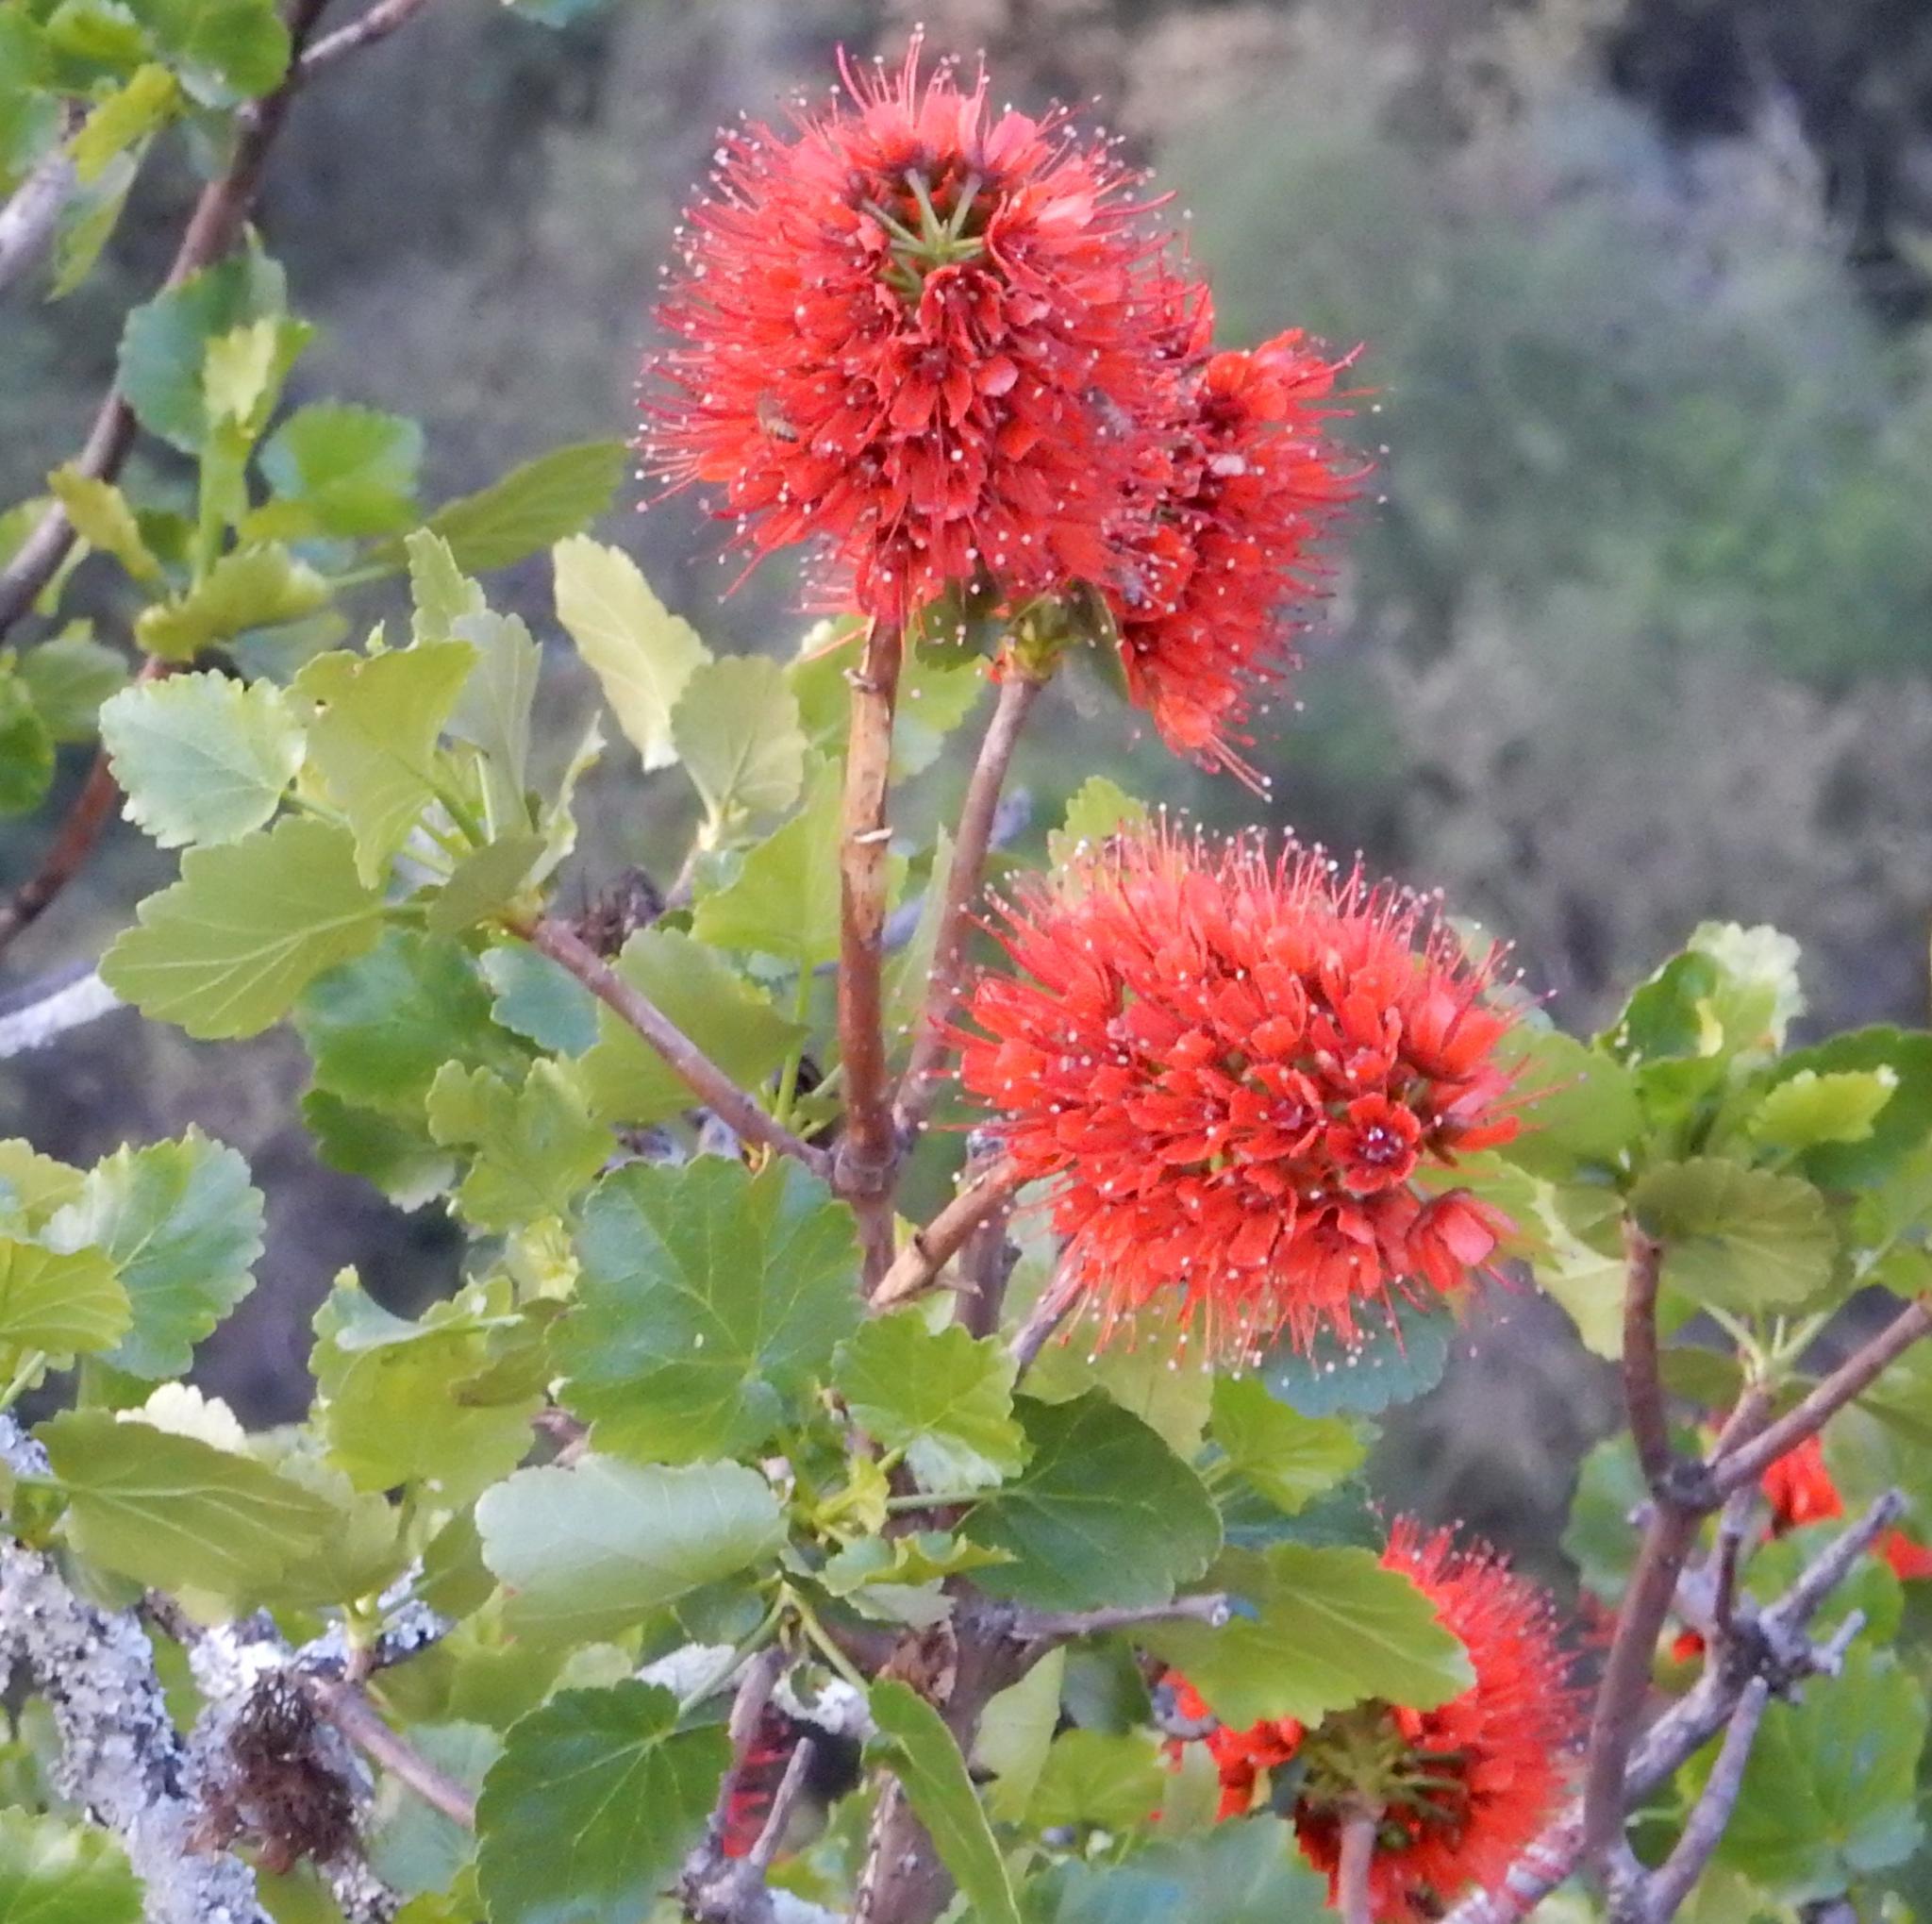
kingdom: Plantae
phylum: Tracheophyta
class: Magnoliopsida
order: Geraniales
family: Francoaceae
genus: Greyia
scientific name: Greyia sutherlandii
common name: Glossy bottlebrush
